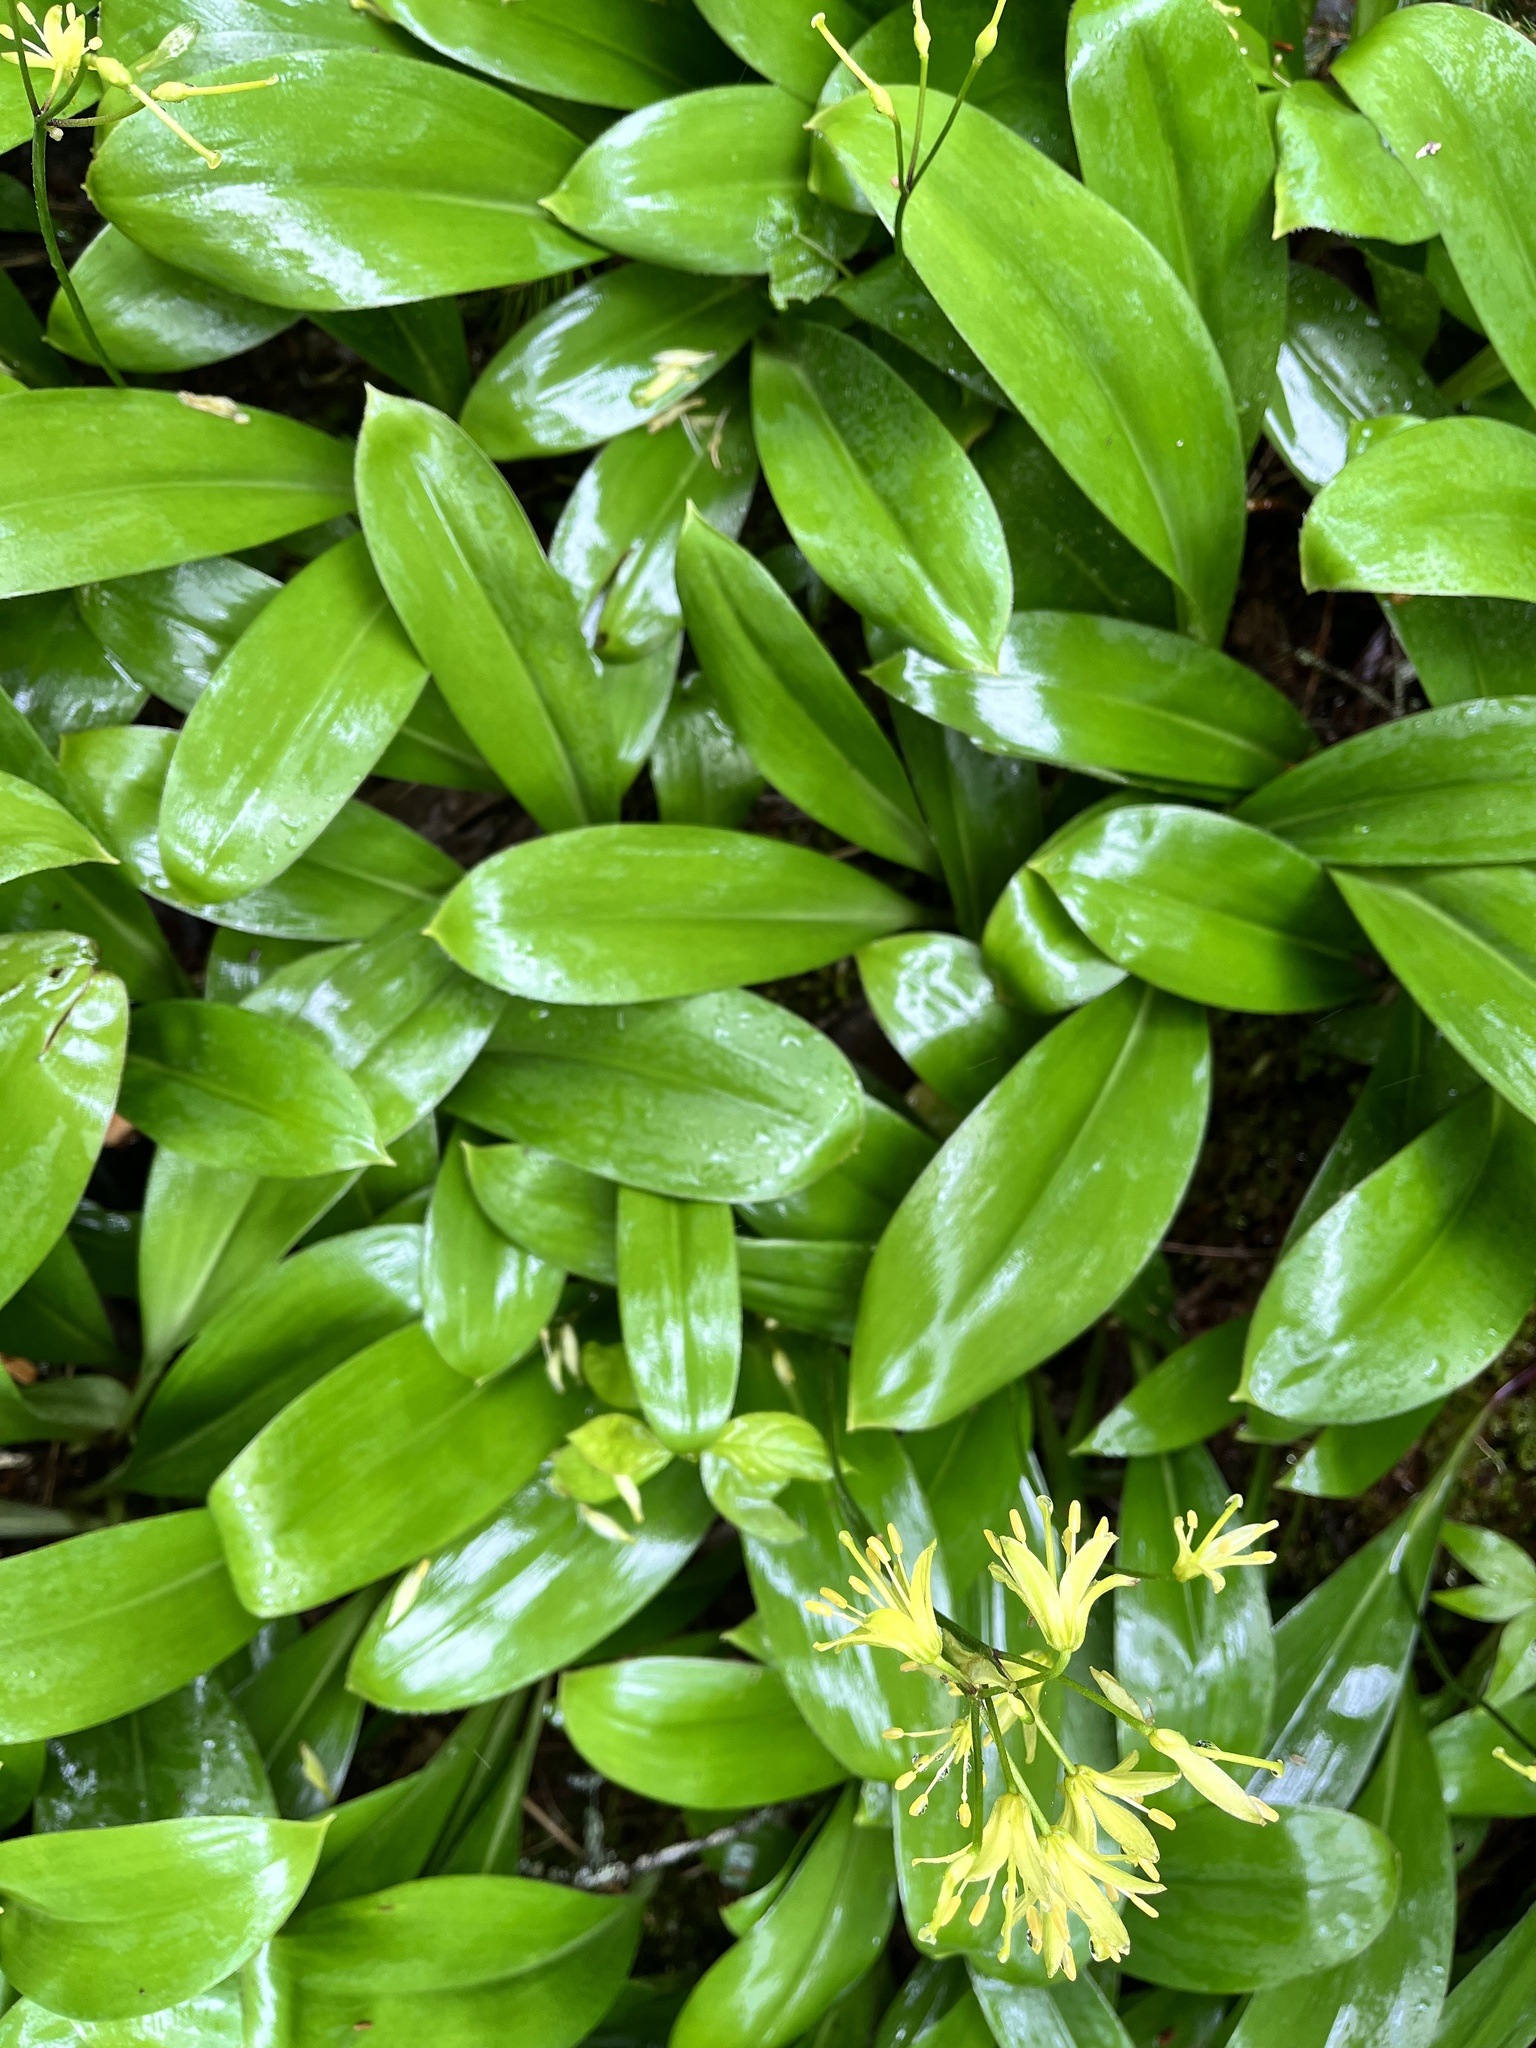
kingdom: Plantae
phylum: Tracheophyta
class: Liliopsida
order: Liliales
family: Liliaceae
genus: Clintonia
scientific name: Clintonia borealis
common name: Yellow clintonia
